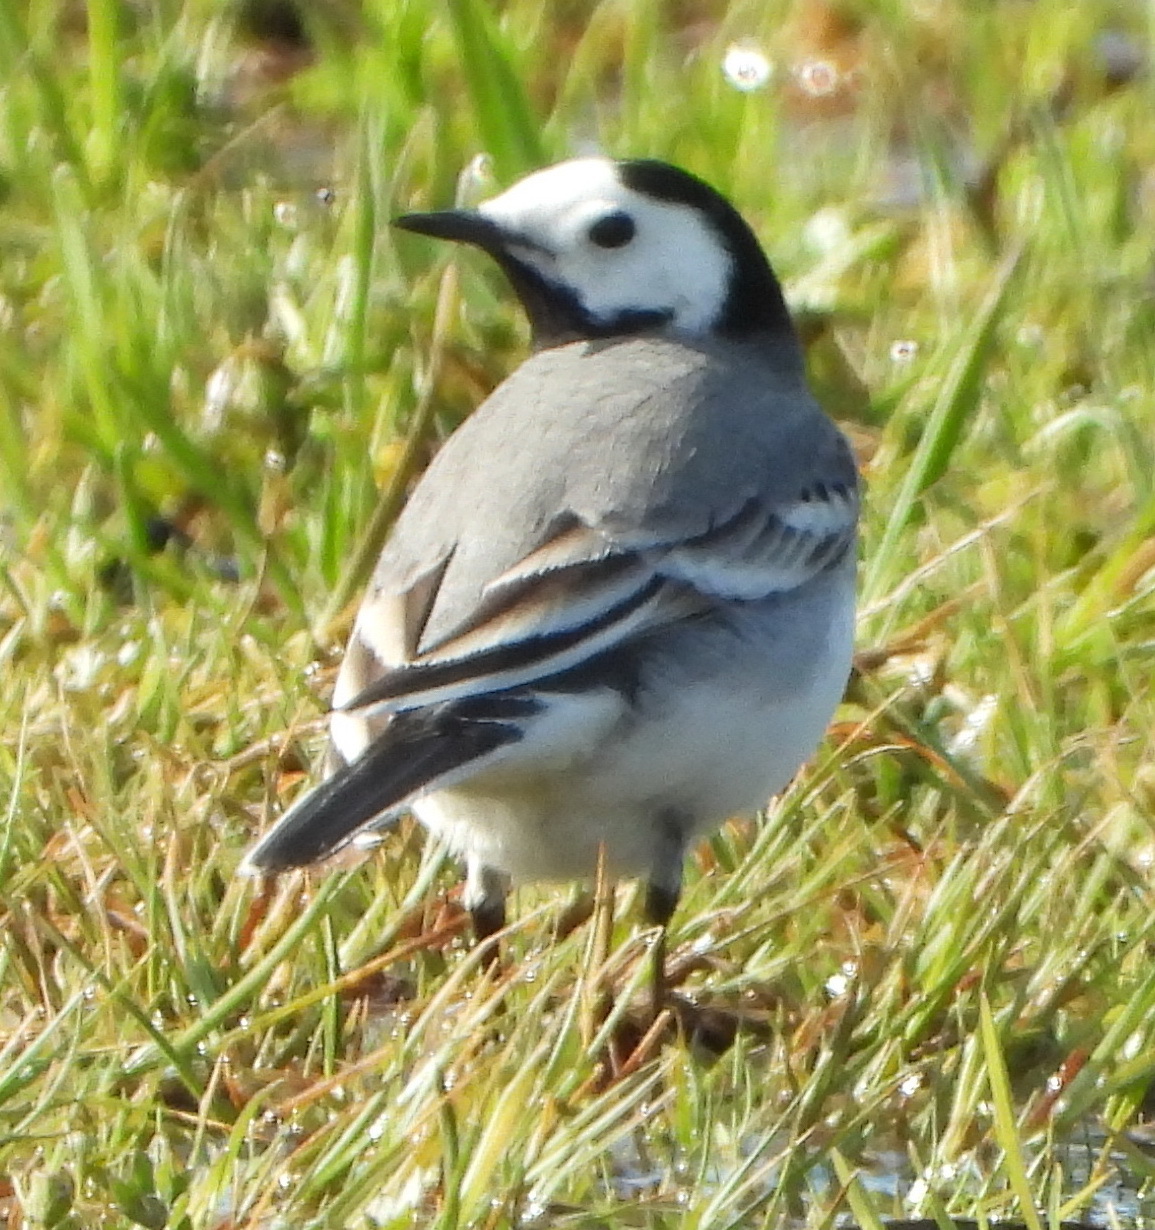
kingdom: Animalia
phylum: Chordata
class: Aves
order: Passeriformes
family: Motacillidae
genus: Motacilla
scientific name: Motacilla alba
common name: White wagtail
